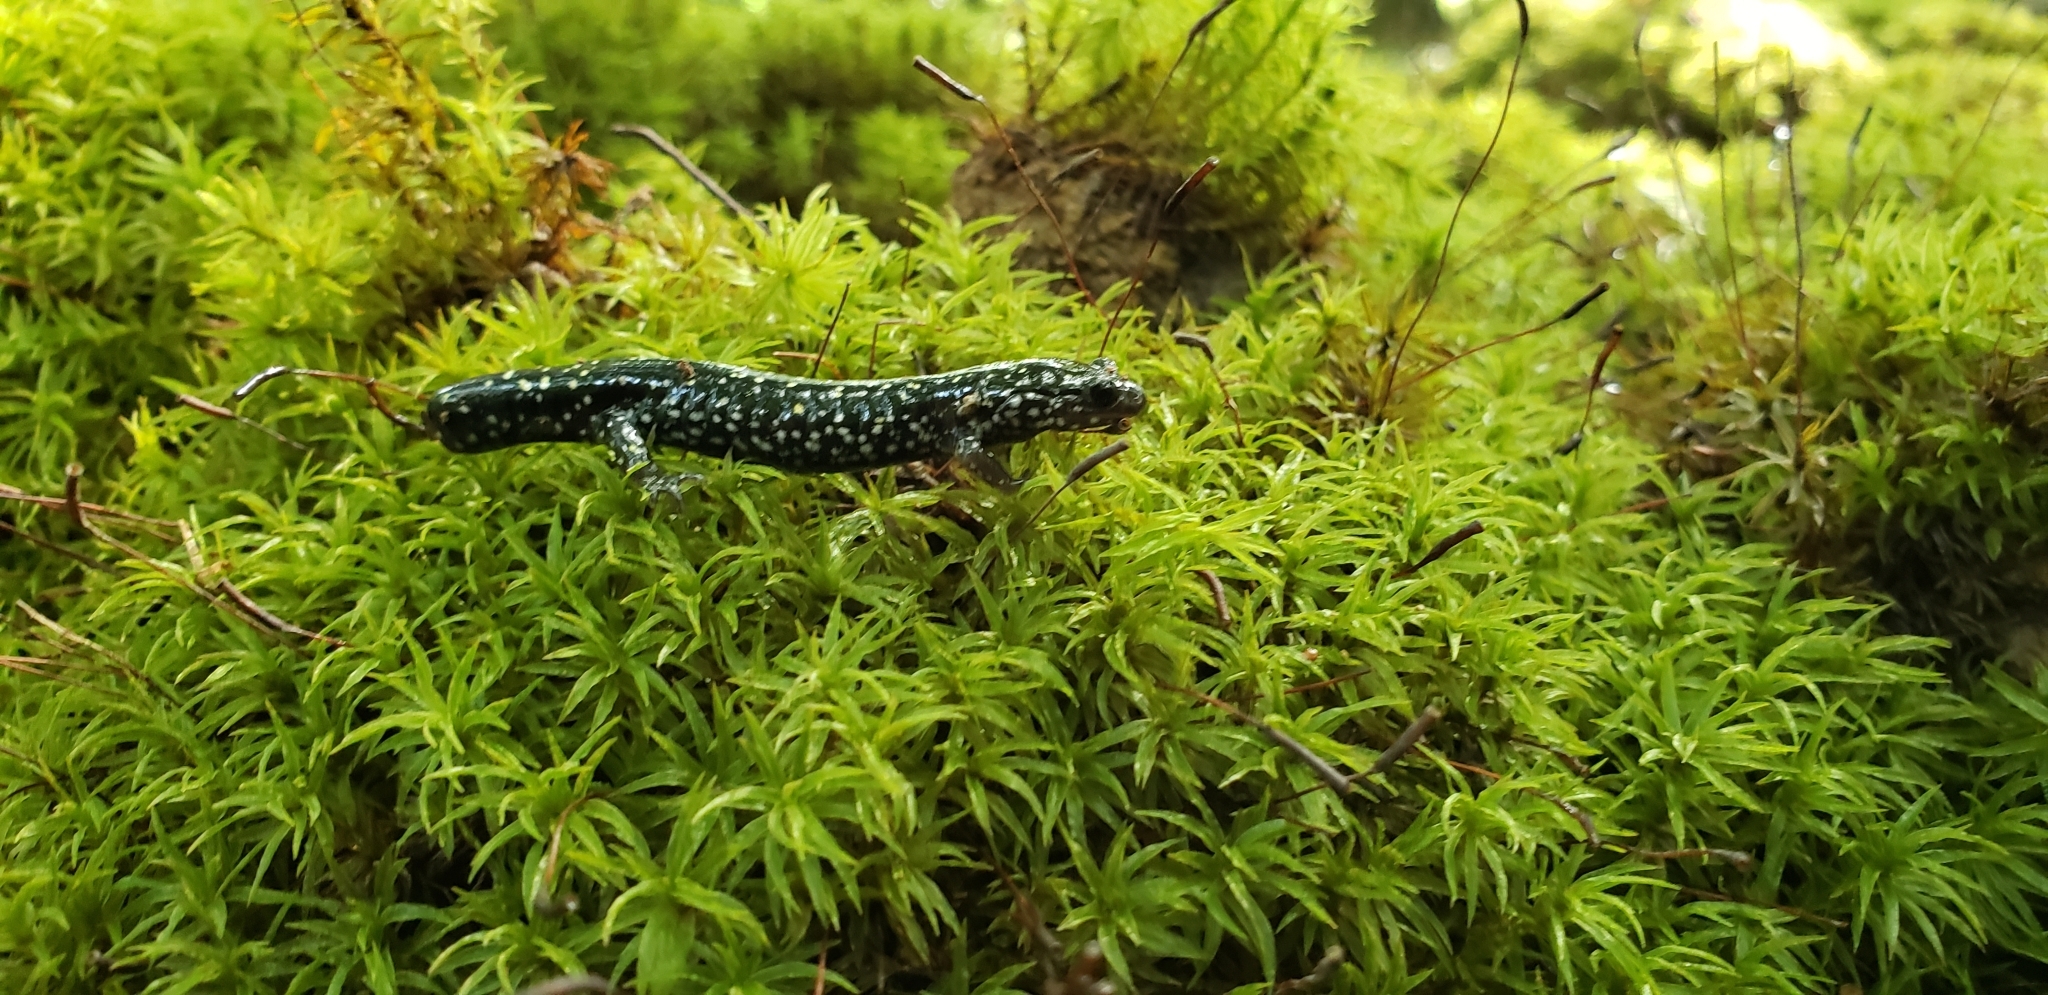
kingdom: Animalia
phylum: Chordata
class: Amphibia
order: Caudata
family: Plethodontidae
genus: Plethodon
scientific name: Plethodon mississippi
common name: Mississippi slimy salamander
